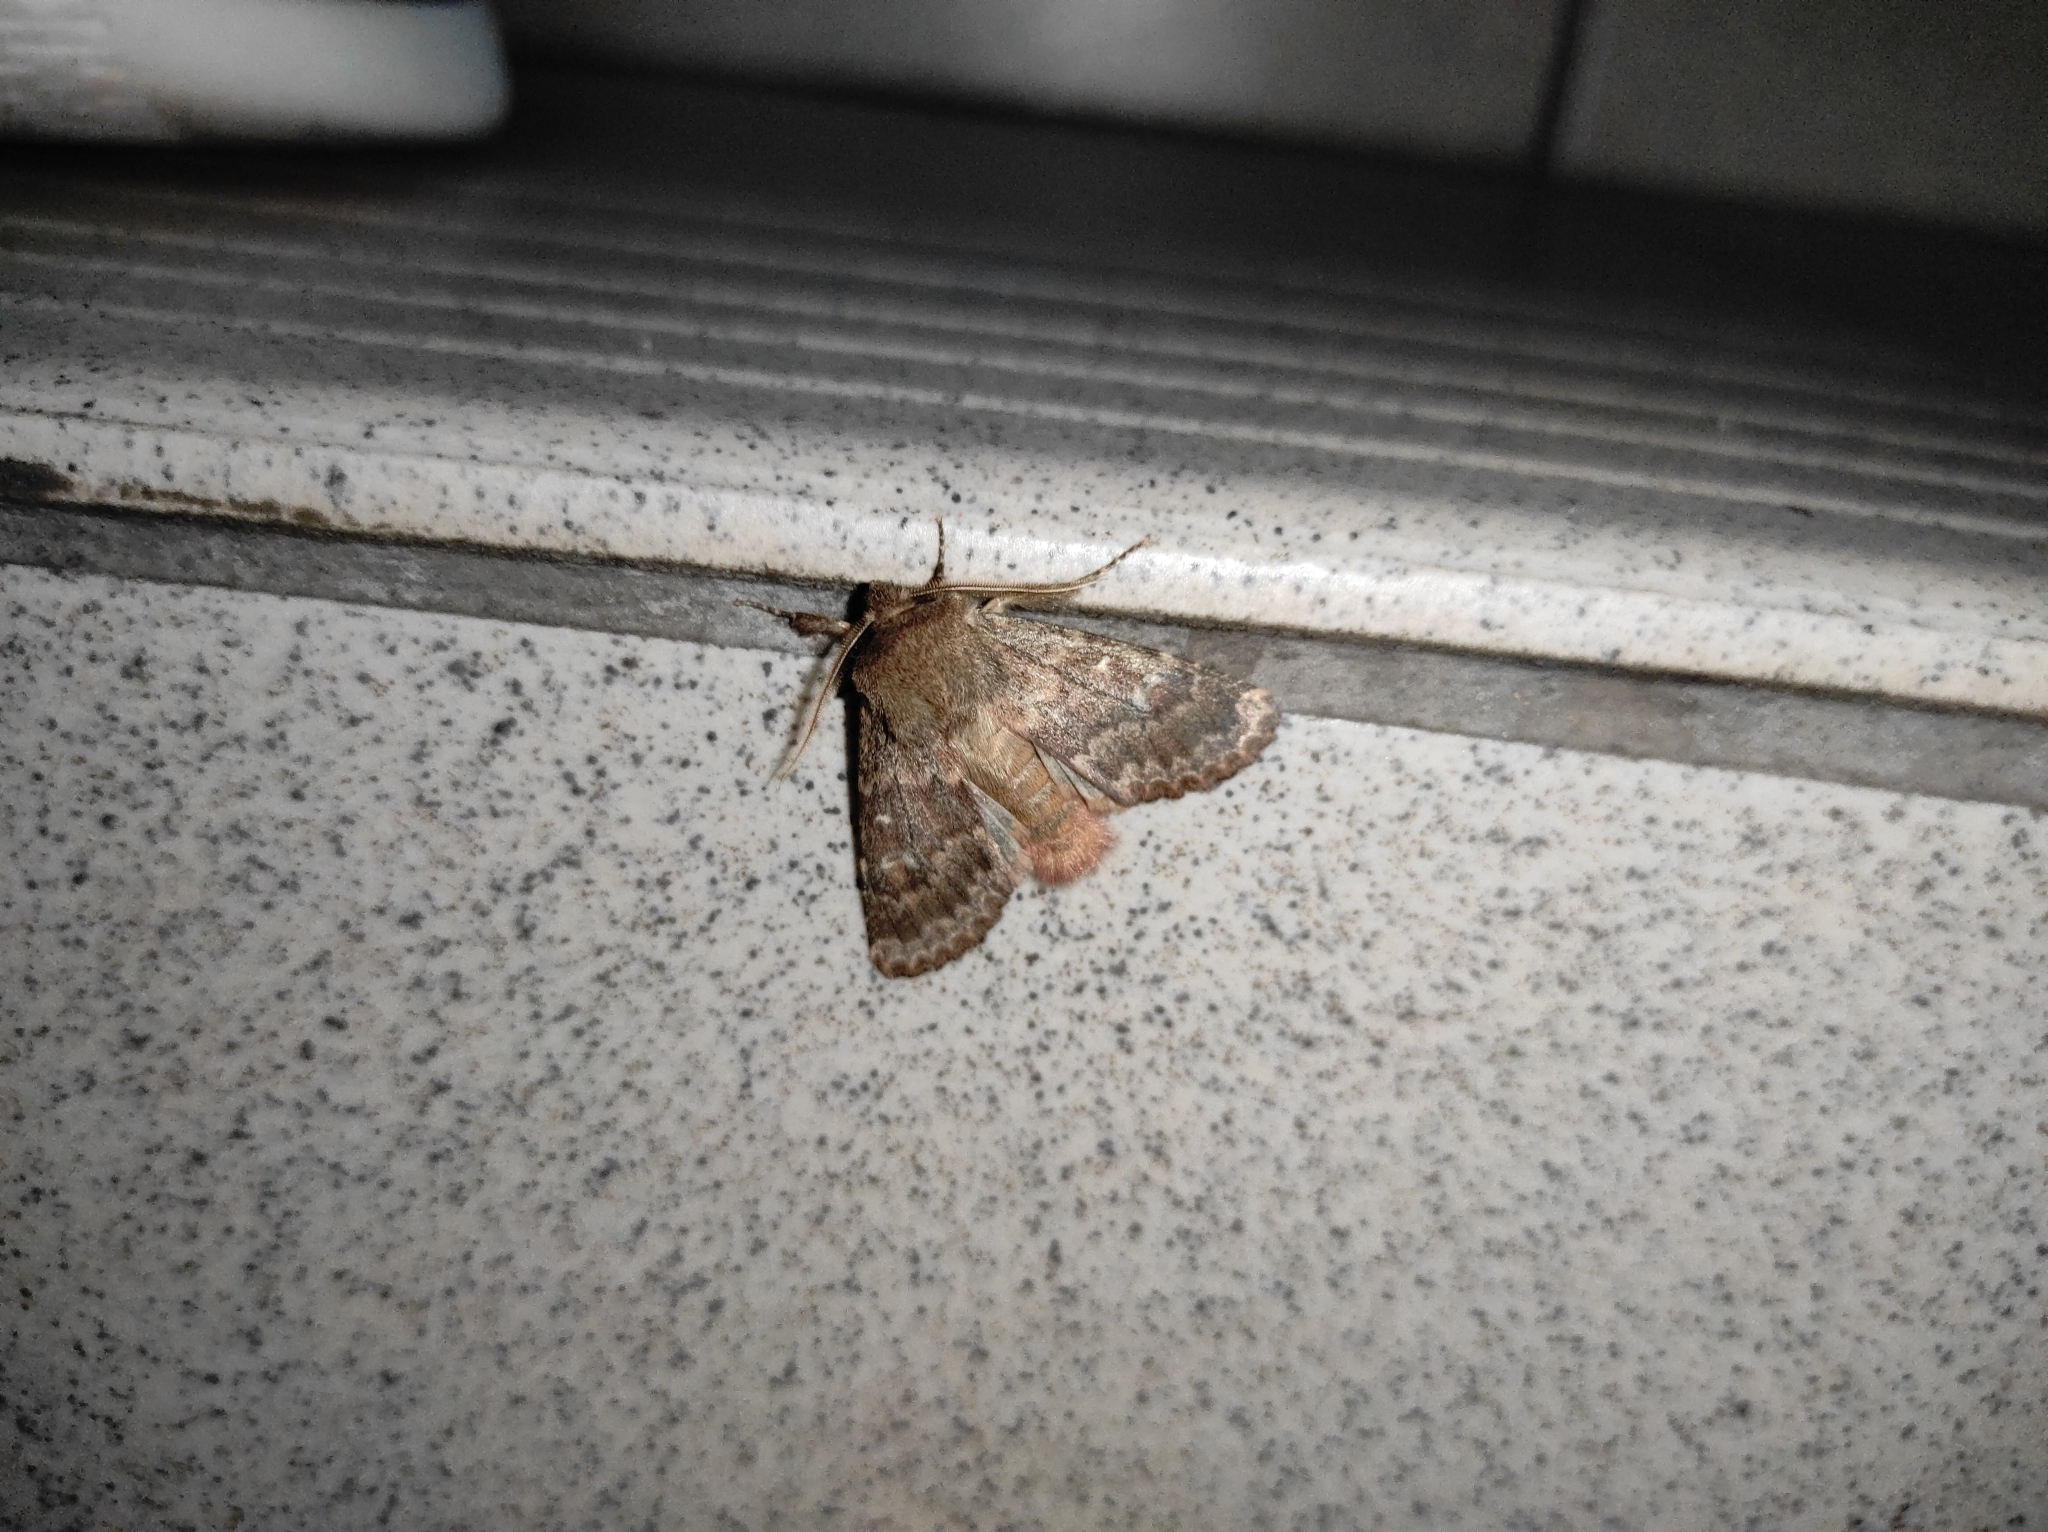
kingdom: Animalia
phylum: Arthropoda
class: Insecta
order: Lepidoptera
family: Noctuidae
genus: Dasypolia
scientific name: Dasypolia templi
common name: Brindled ochre
